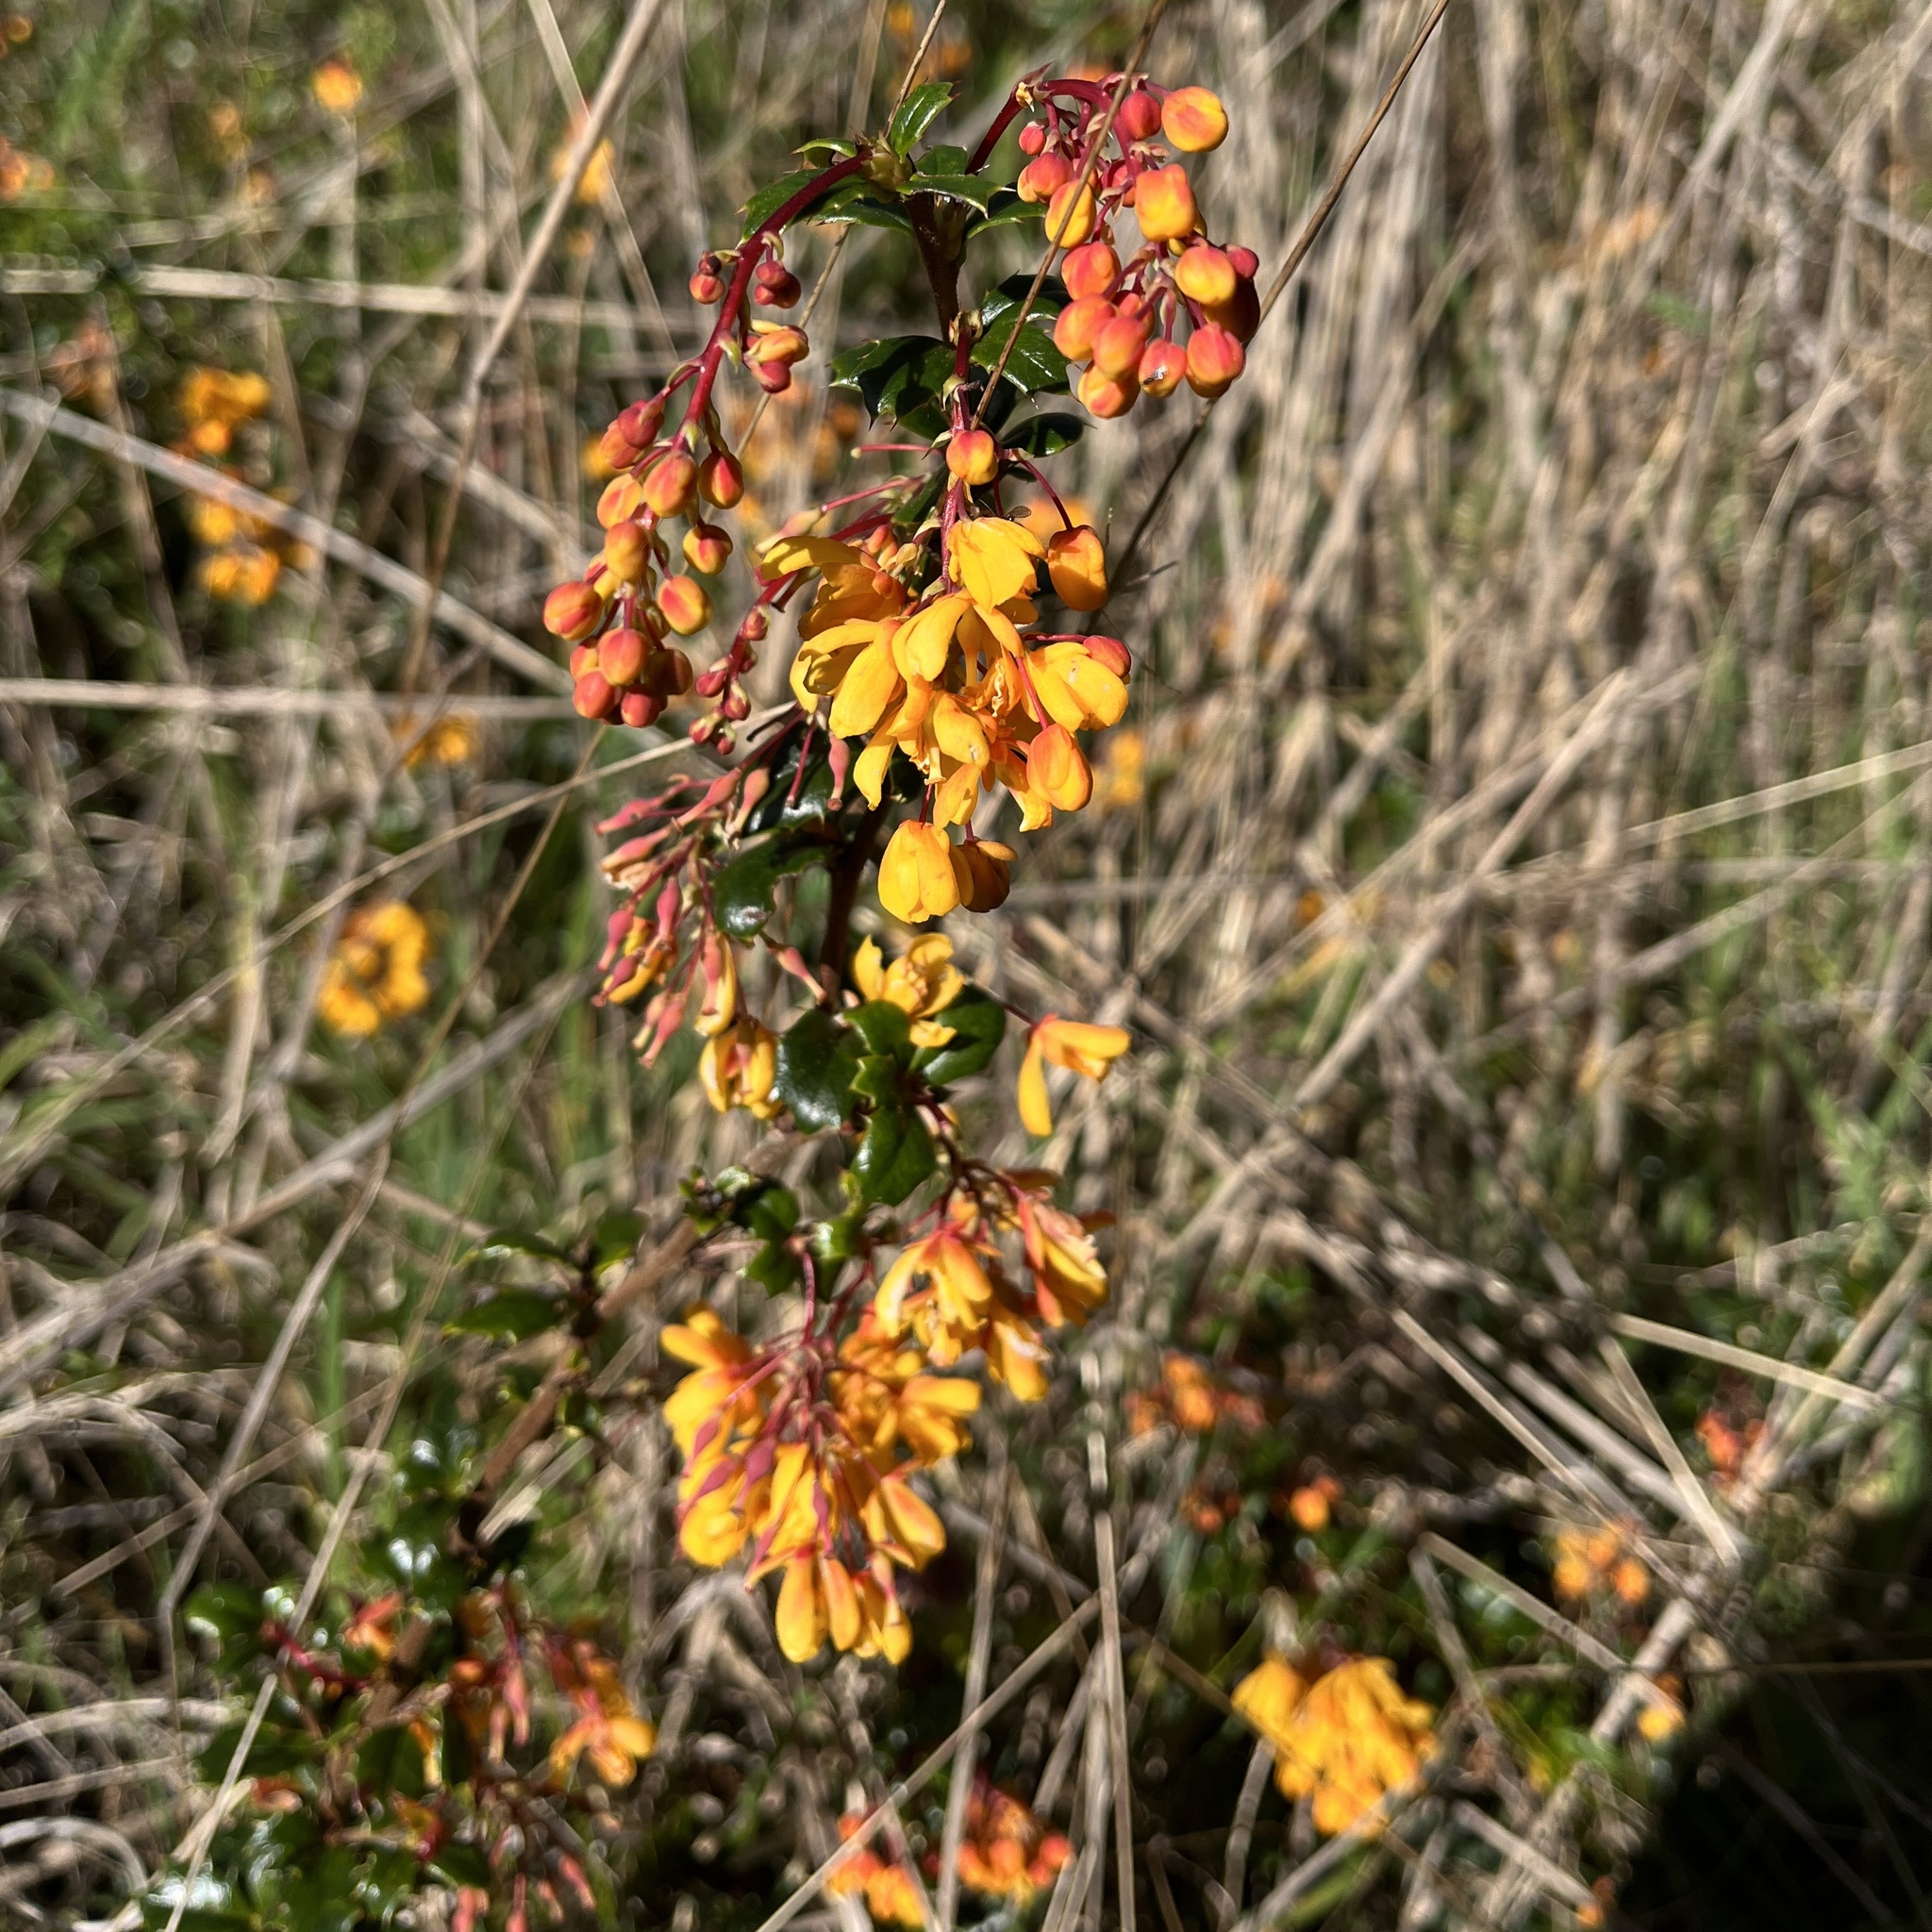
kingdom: Plantae
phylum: Tracheophyta
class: Magnoliopsida
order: Ranunculales
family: Berberidaceae
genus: Berberis
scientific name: Berberis darwinii
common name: Darwin's barberry
